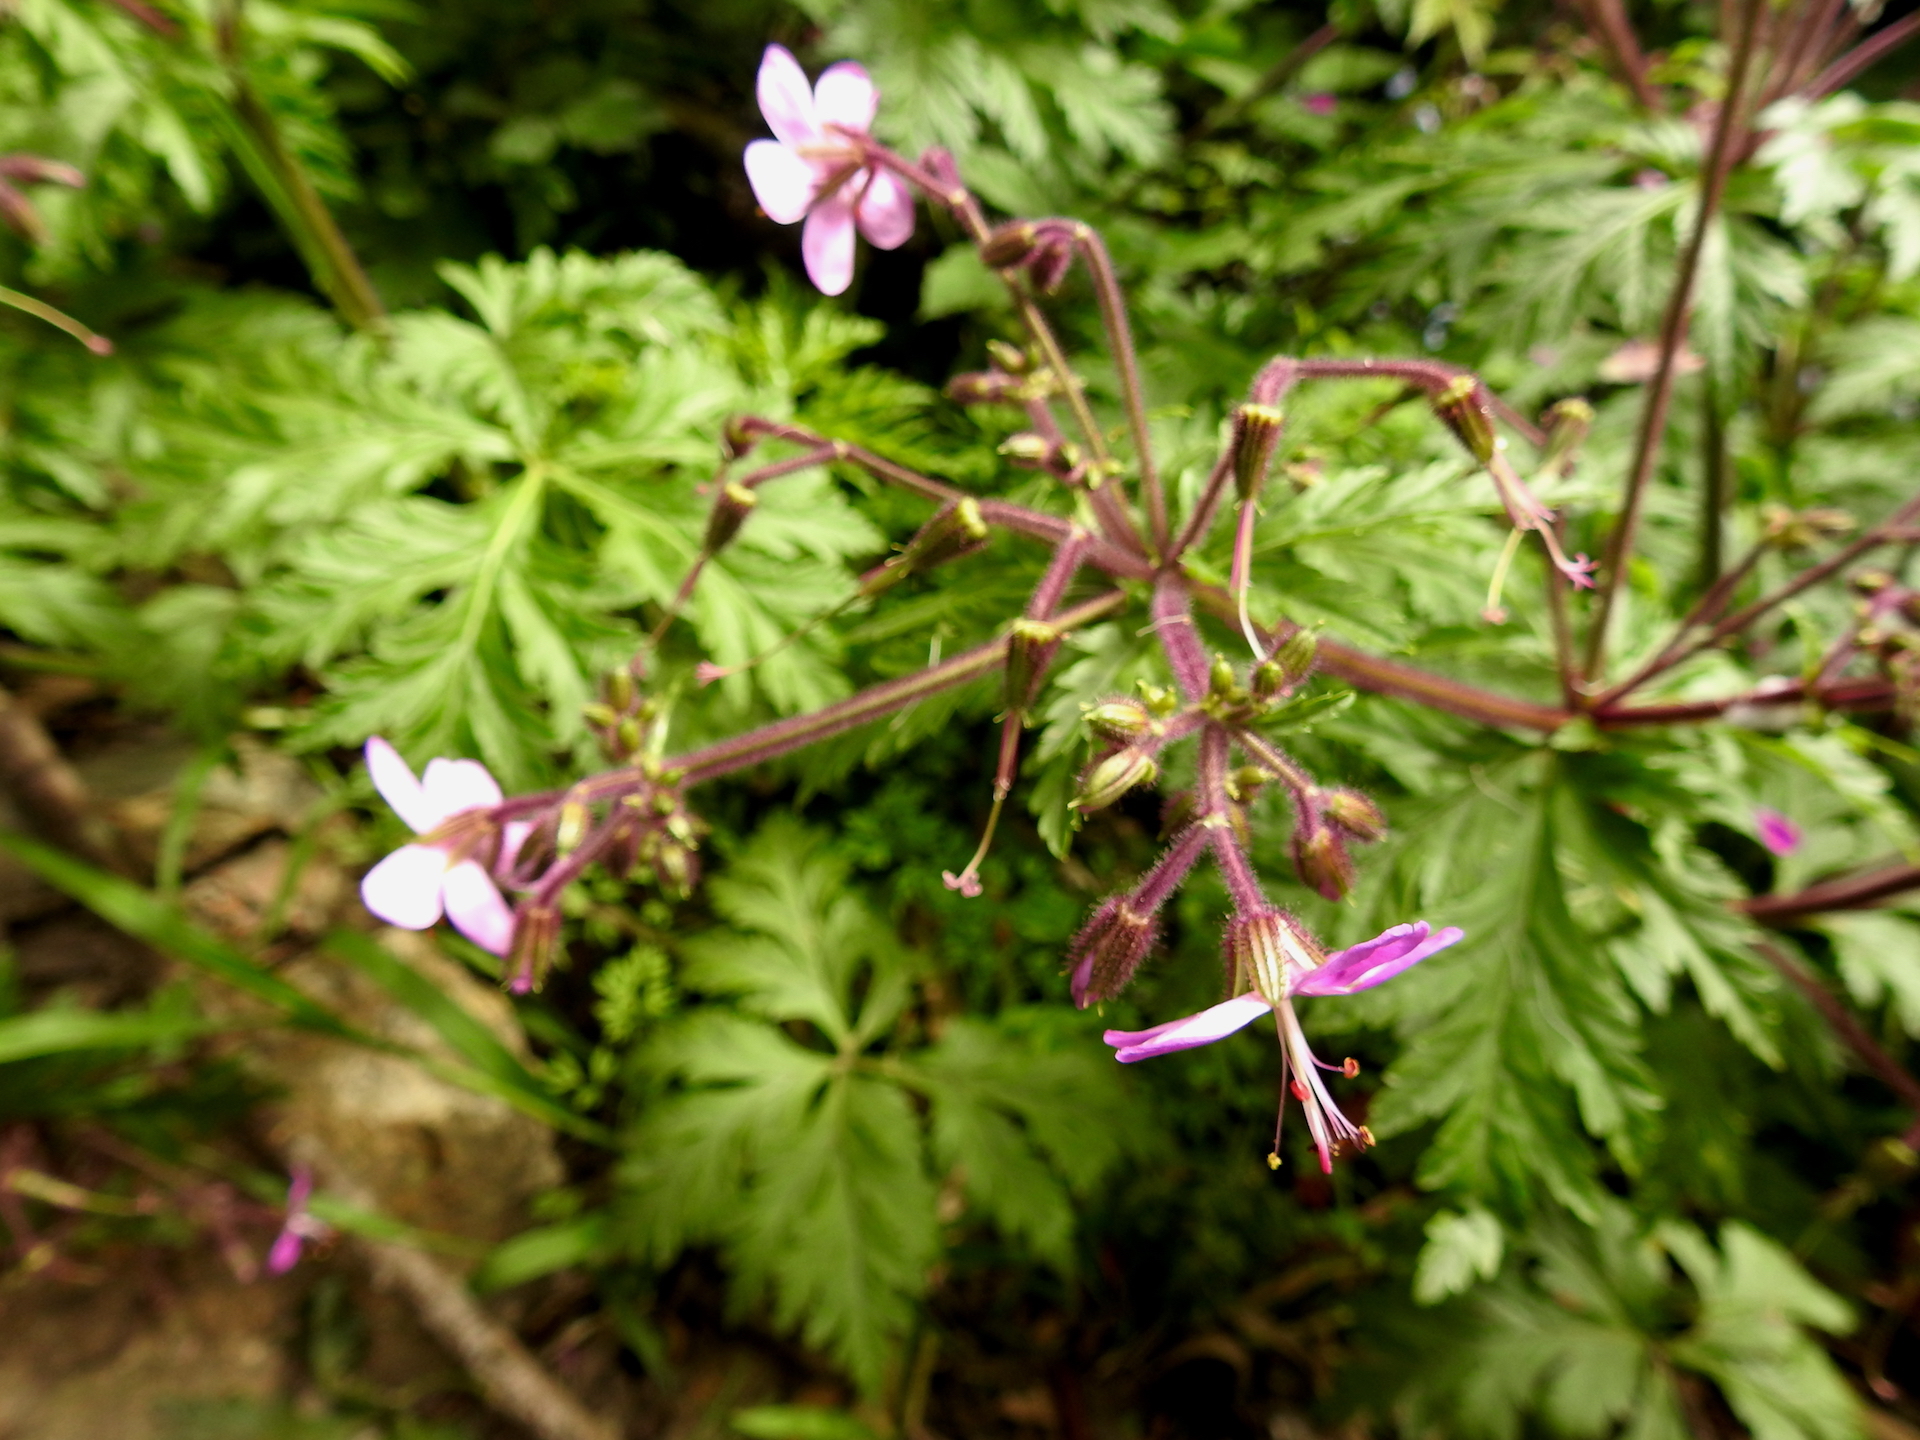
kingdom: Plantae
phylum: Tracheophyta
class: Magnoliopsida
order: Geraniales
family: Geraniaceae
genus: Geranium
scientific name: Geranium reuteri
